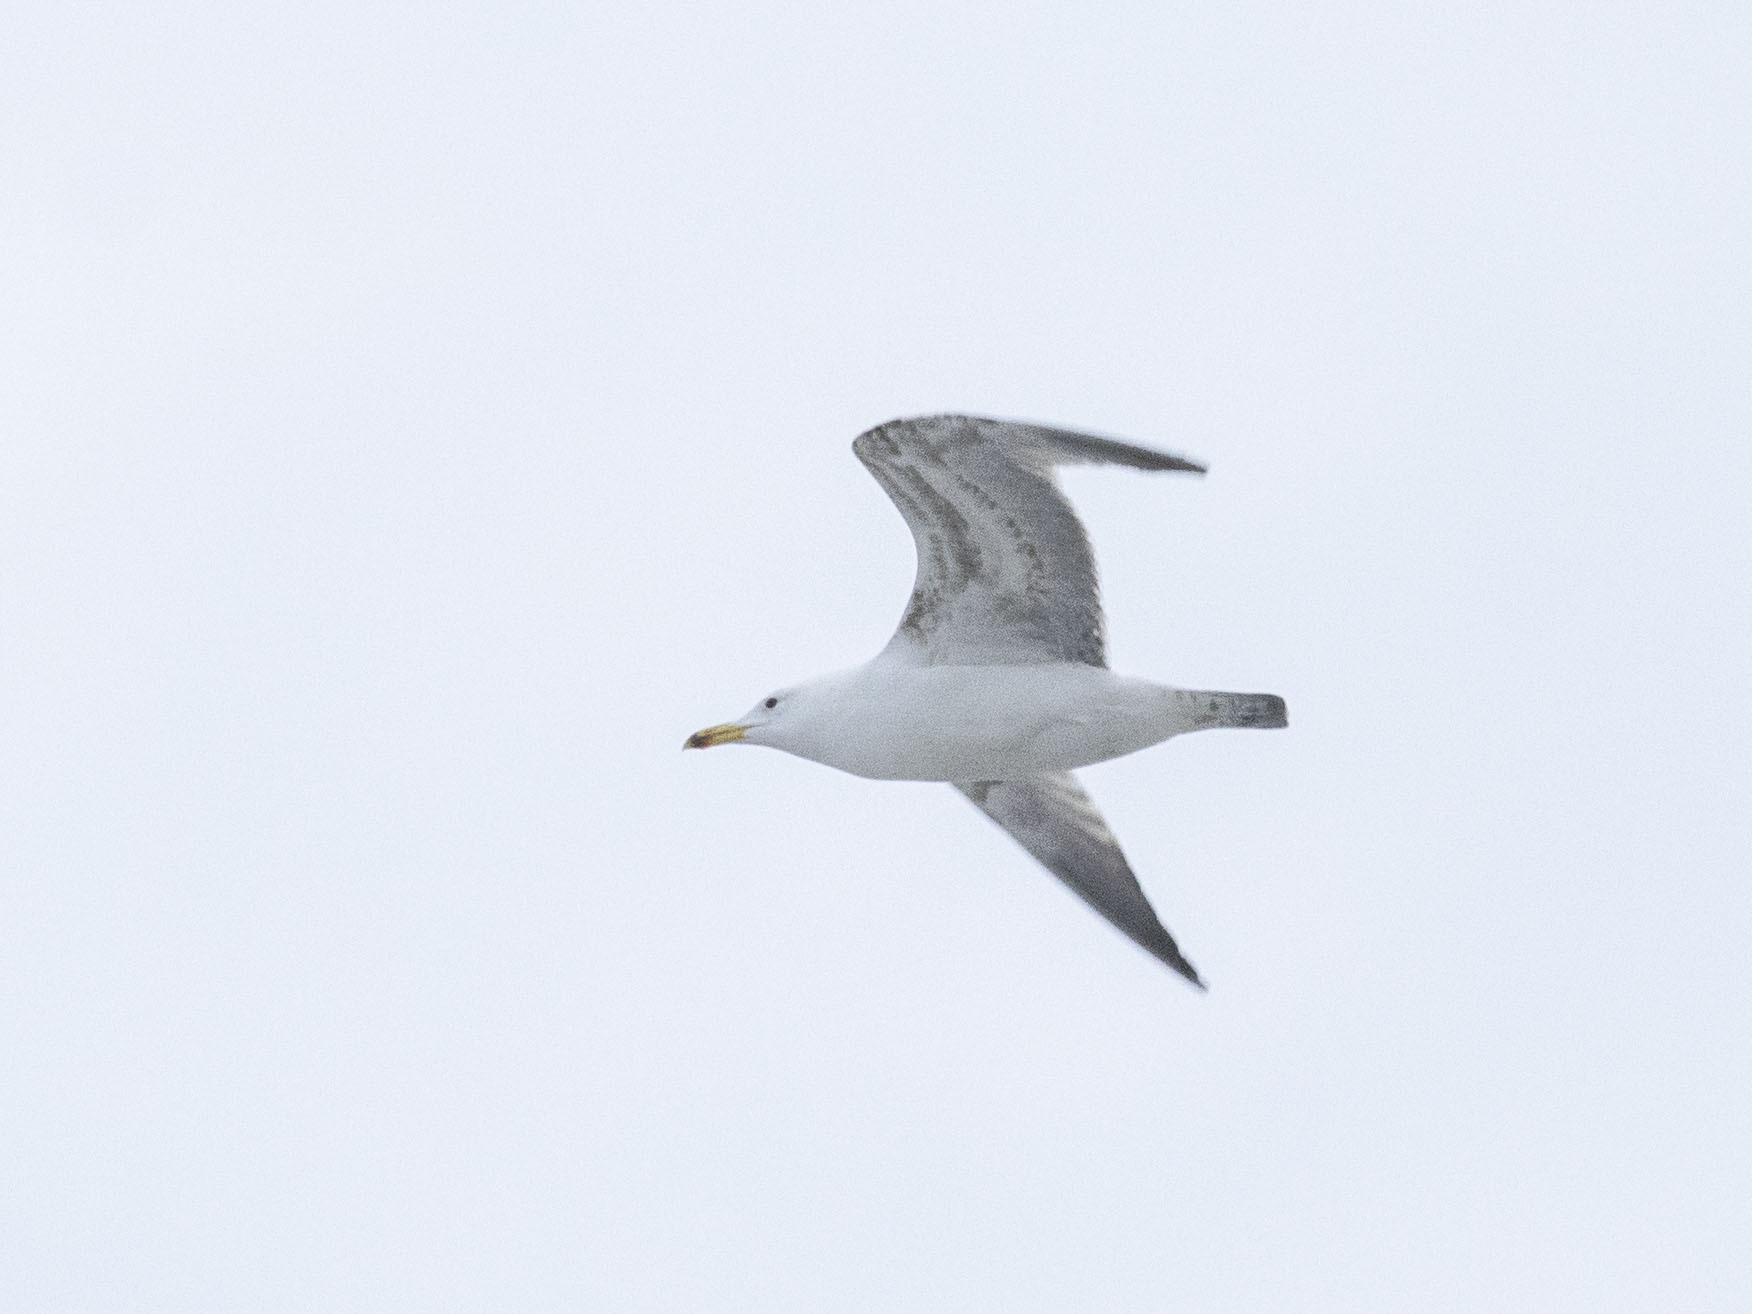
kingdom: Animalia
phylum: Chordata
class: Aves
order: Charadriiformes
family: Laridae
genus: Larus
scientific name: Larus cachinnans
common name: Caspian gull
